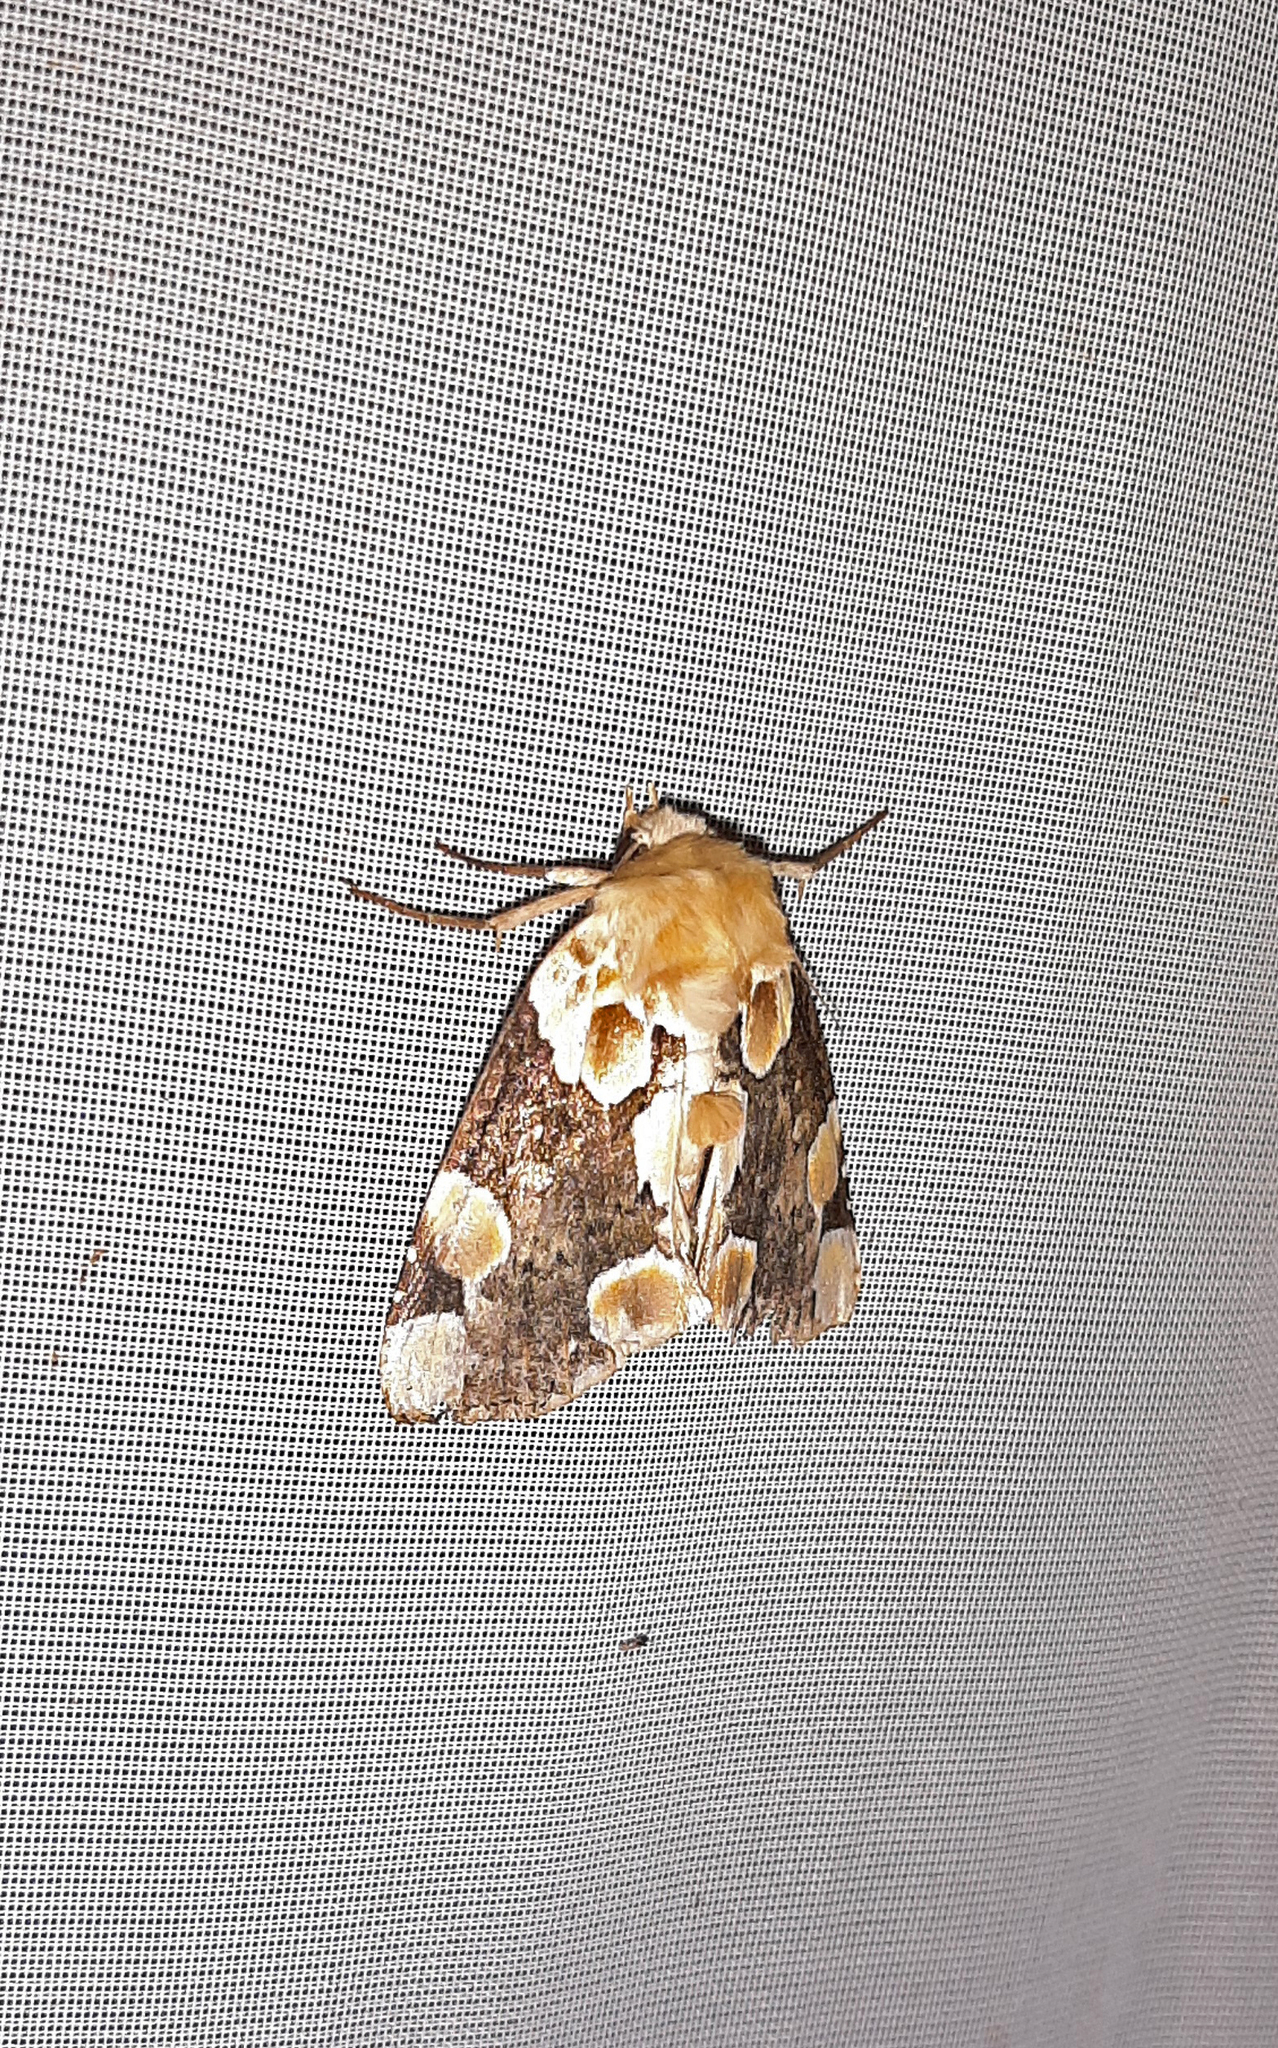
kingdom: Animalia
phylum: Arthropoda
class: Insecta
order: Lepidoptera
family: Drepanidae
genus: Thyatira
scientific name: Thyatira mexicana
